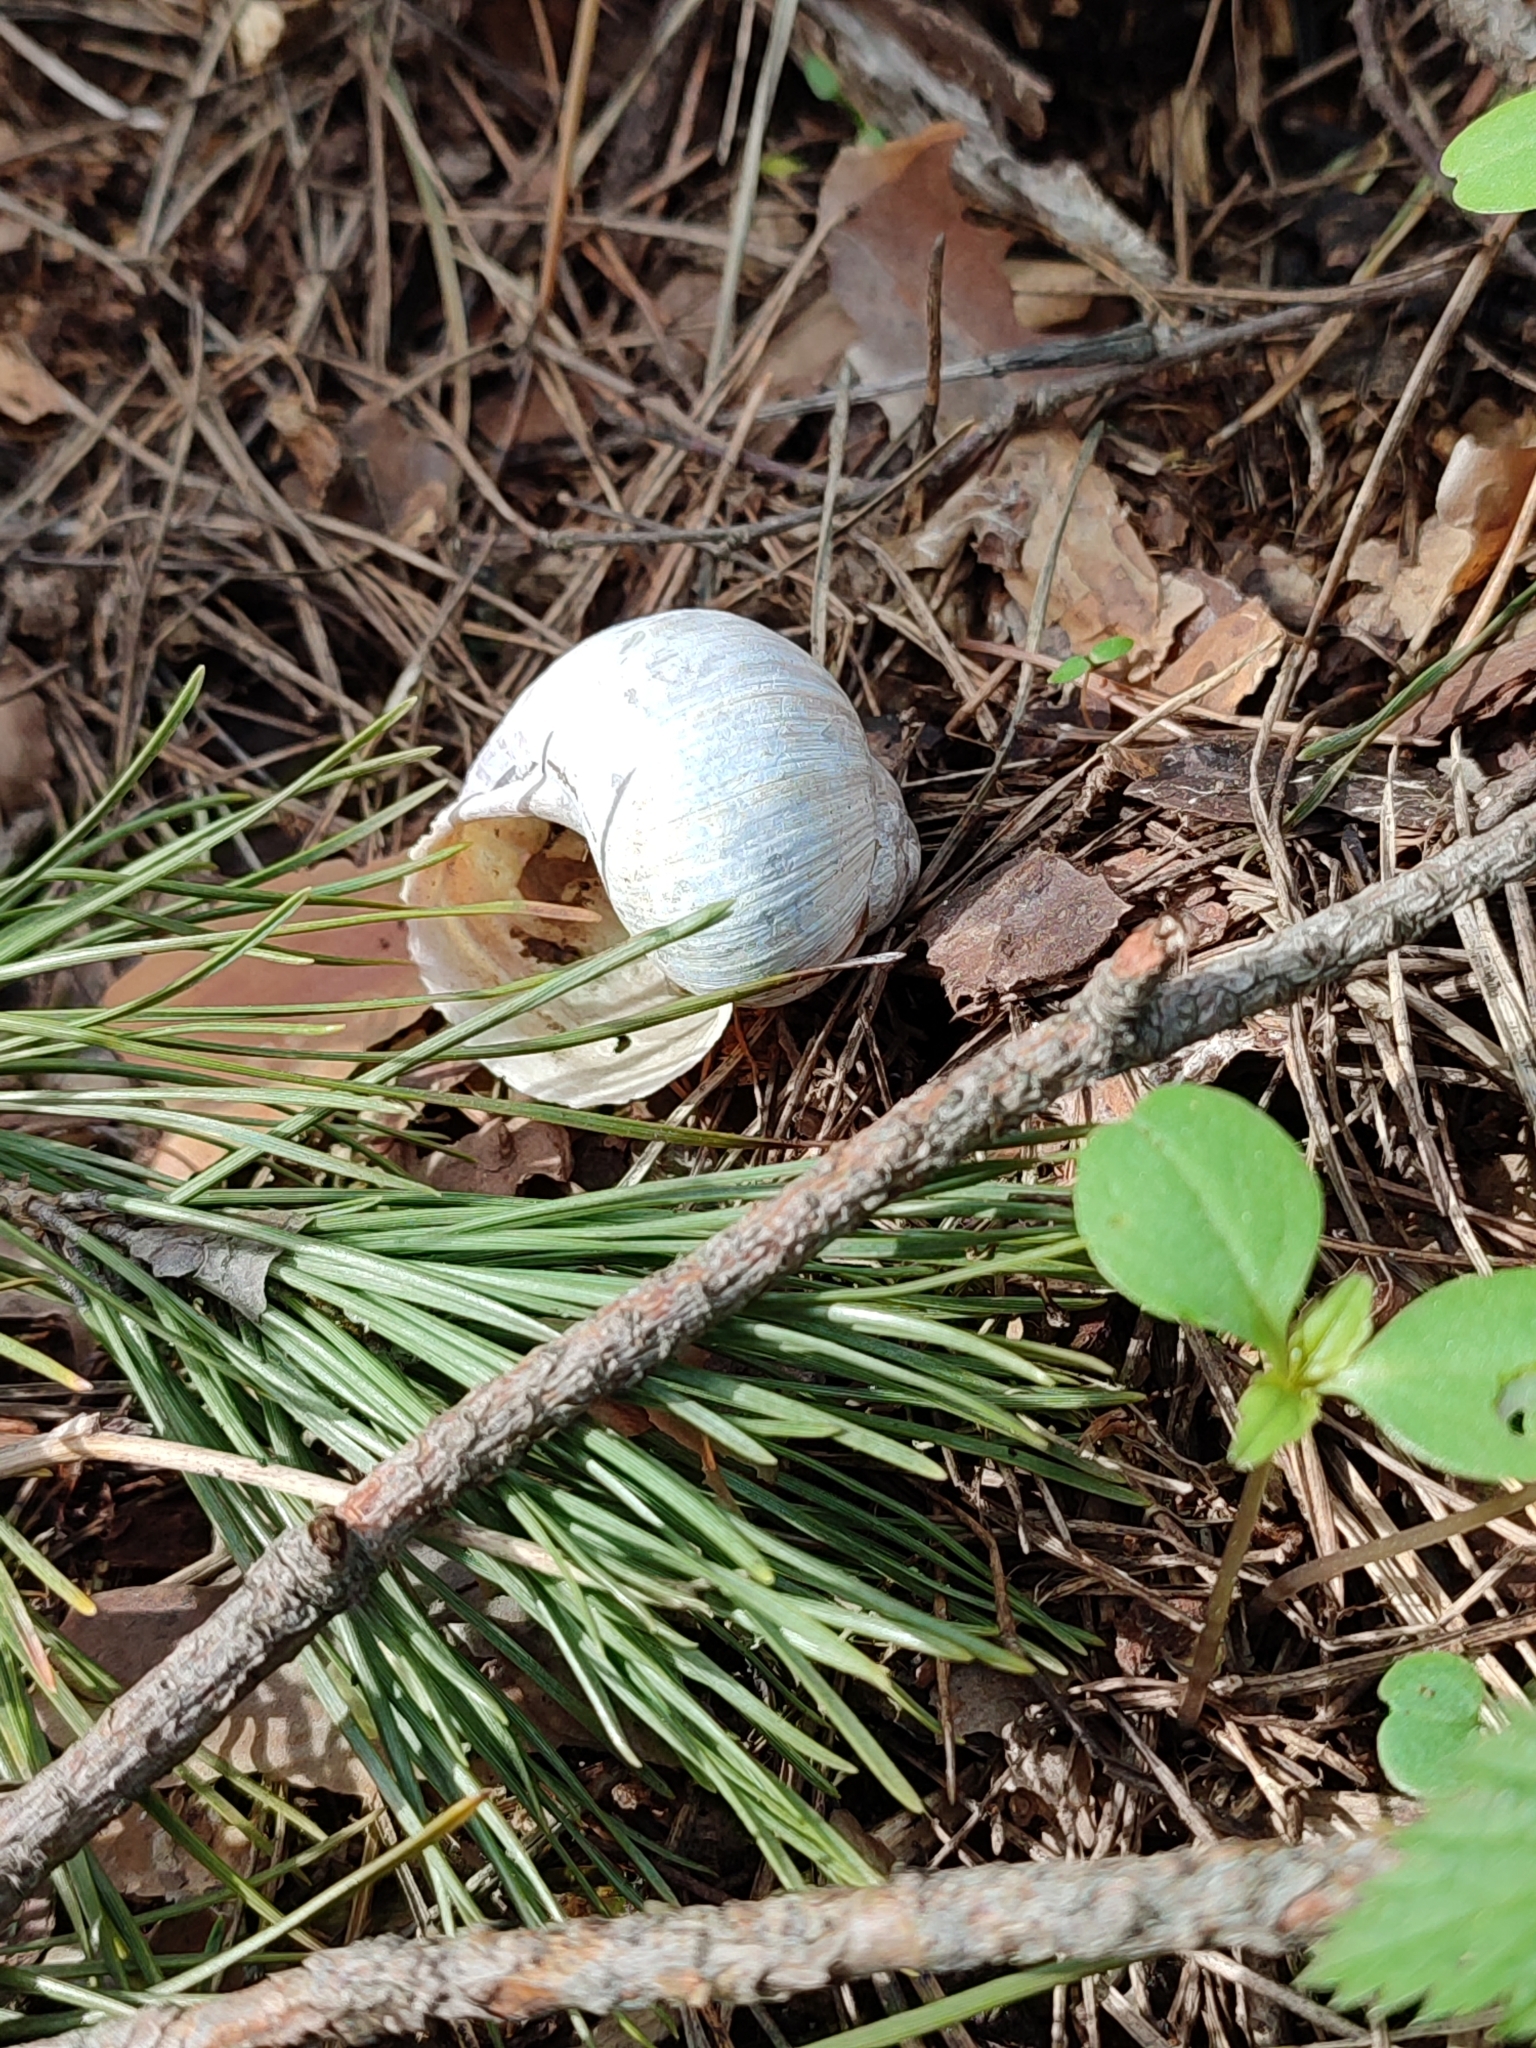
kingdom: Animalia
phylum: Mollusca
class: Gastropoda
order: Stylommatophora
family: Helicidae
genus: Helix
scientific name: Helix pomatia
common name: Roman snail
